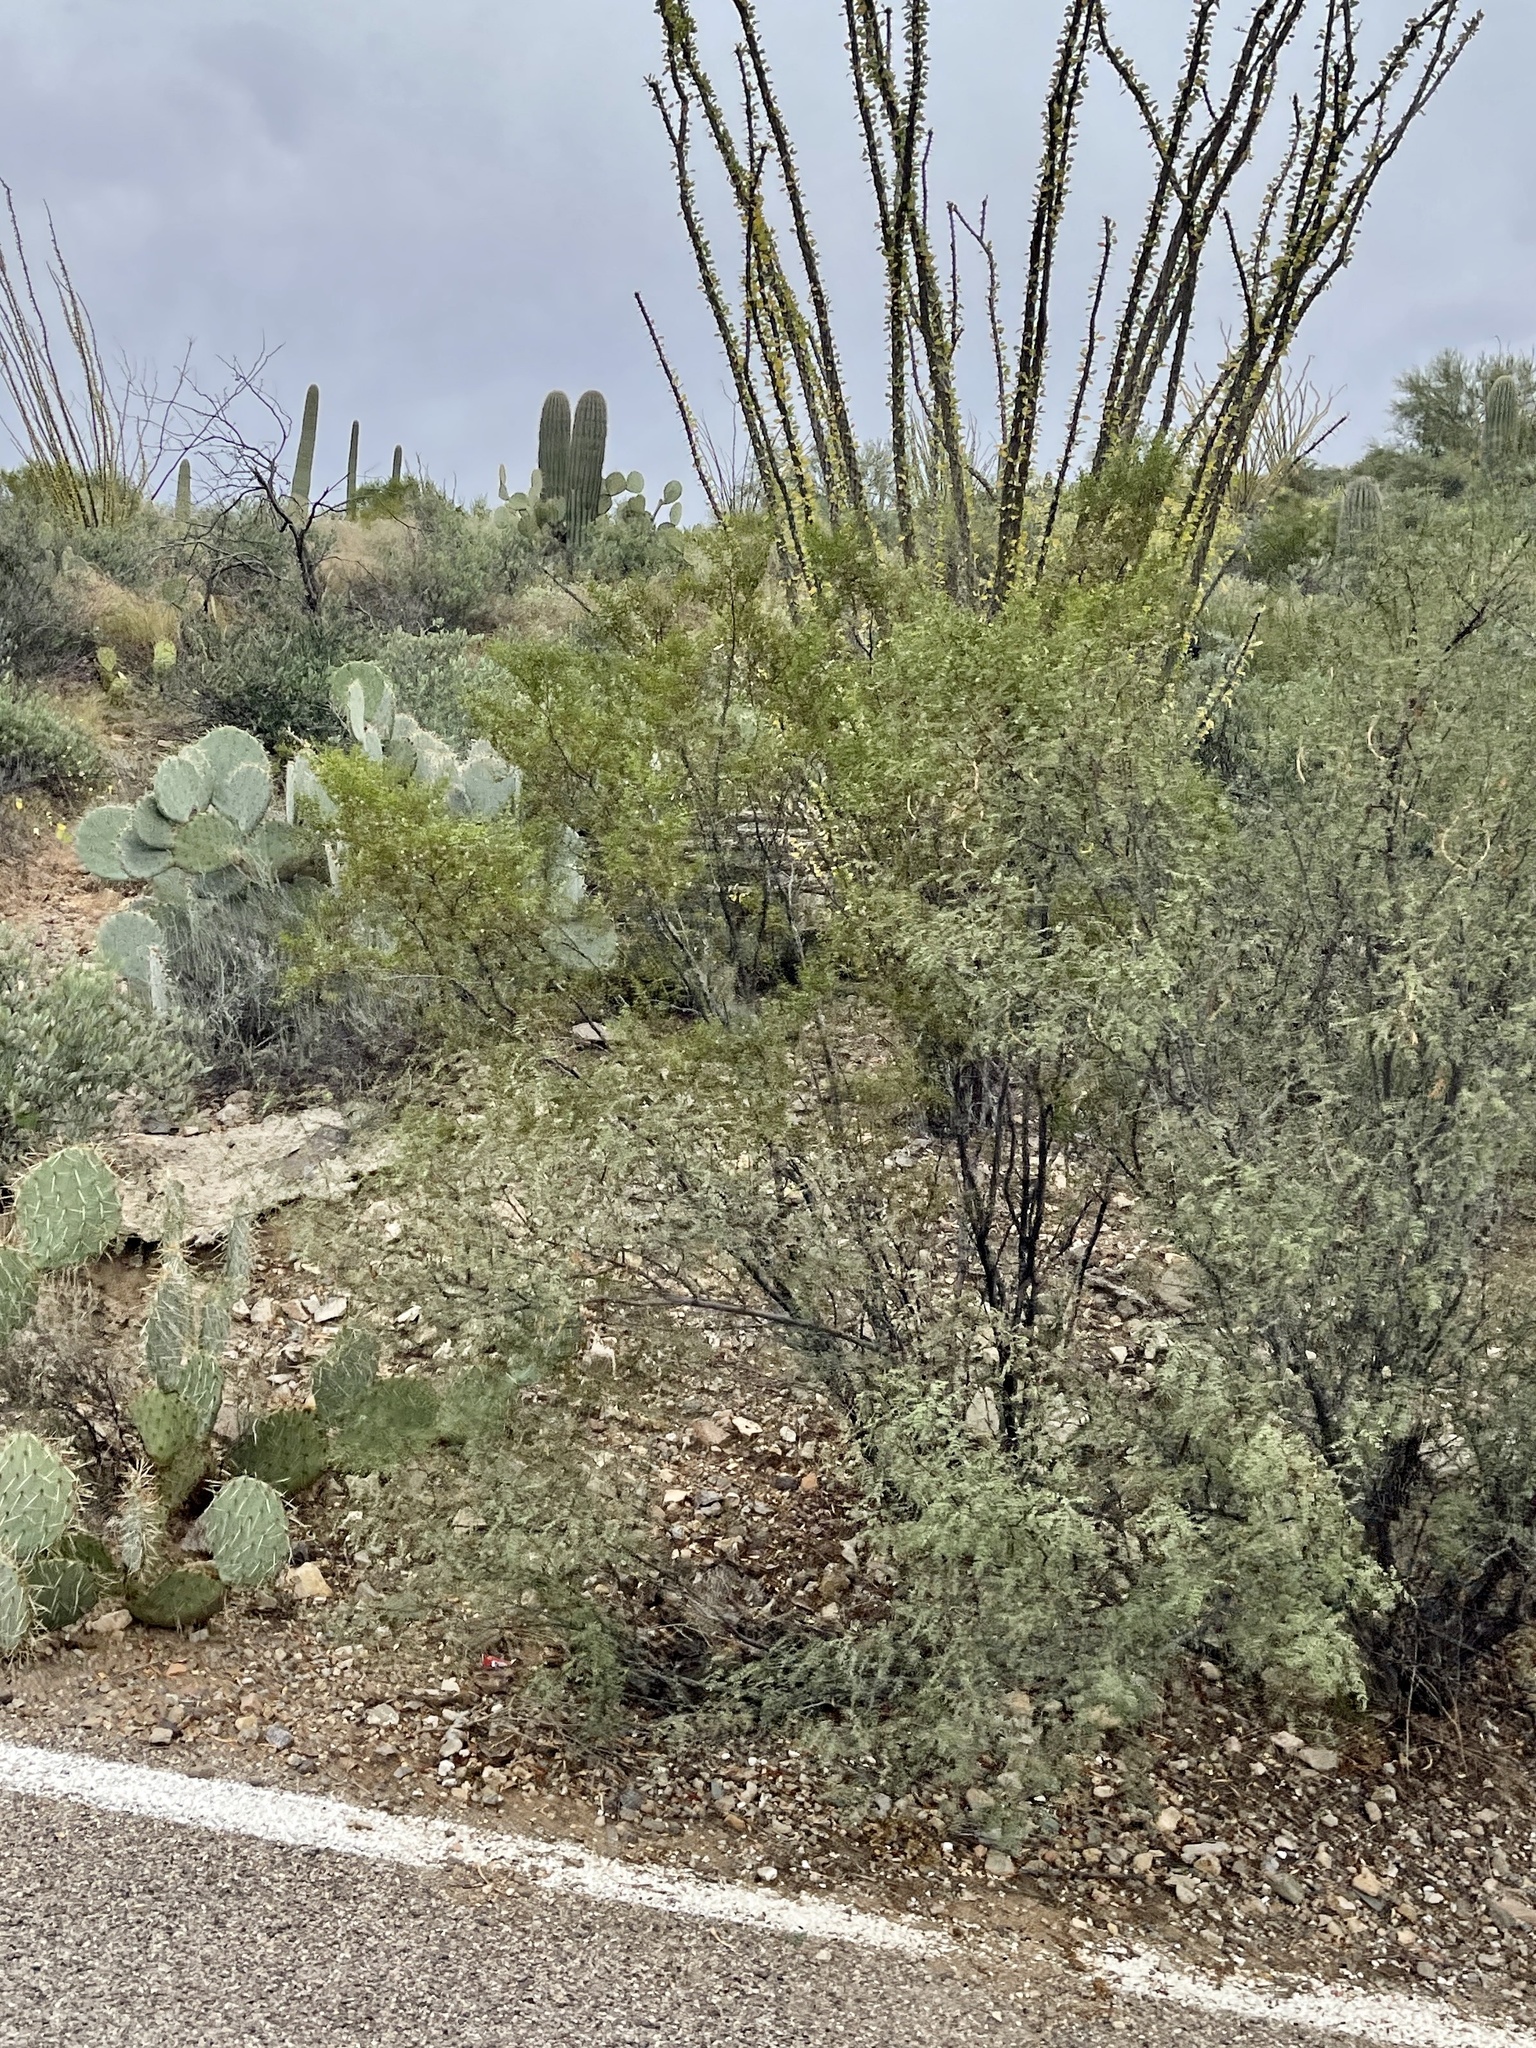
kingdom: Plantae
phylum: Tracheophyta
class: Magnoliopsida
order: Zygophyllales
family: Zygophyllaceae
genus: Larrea
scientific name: Larrea tridentata
